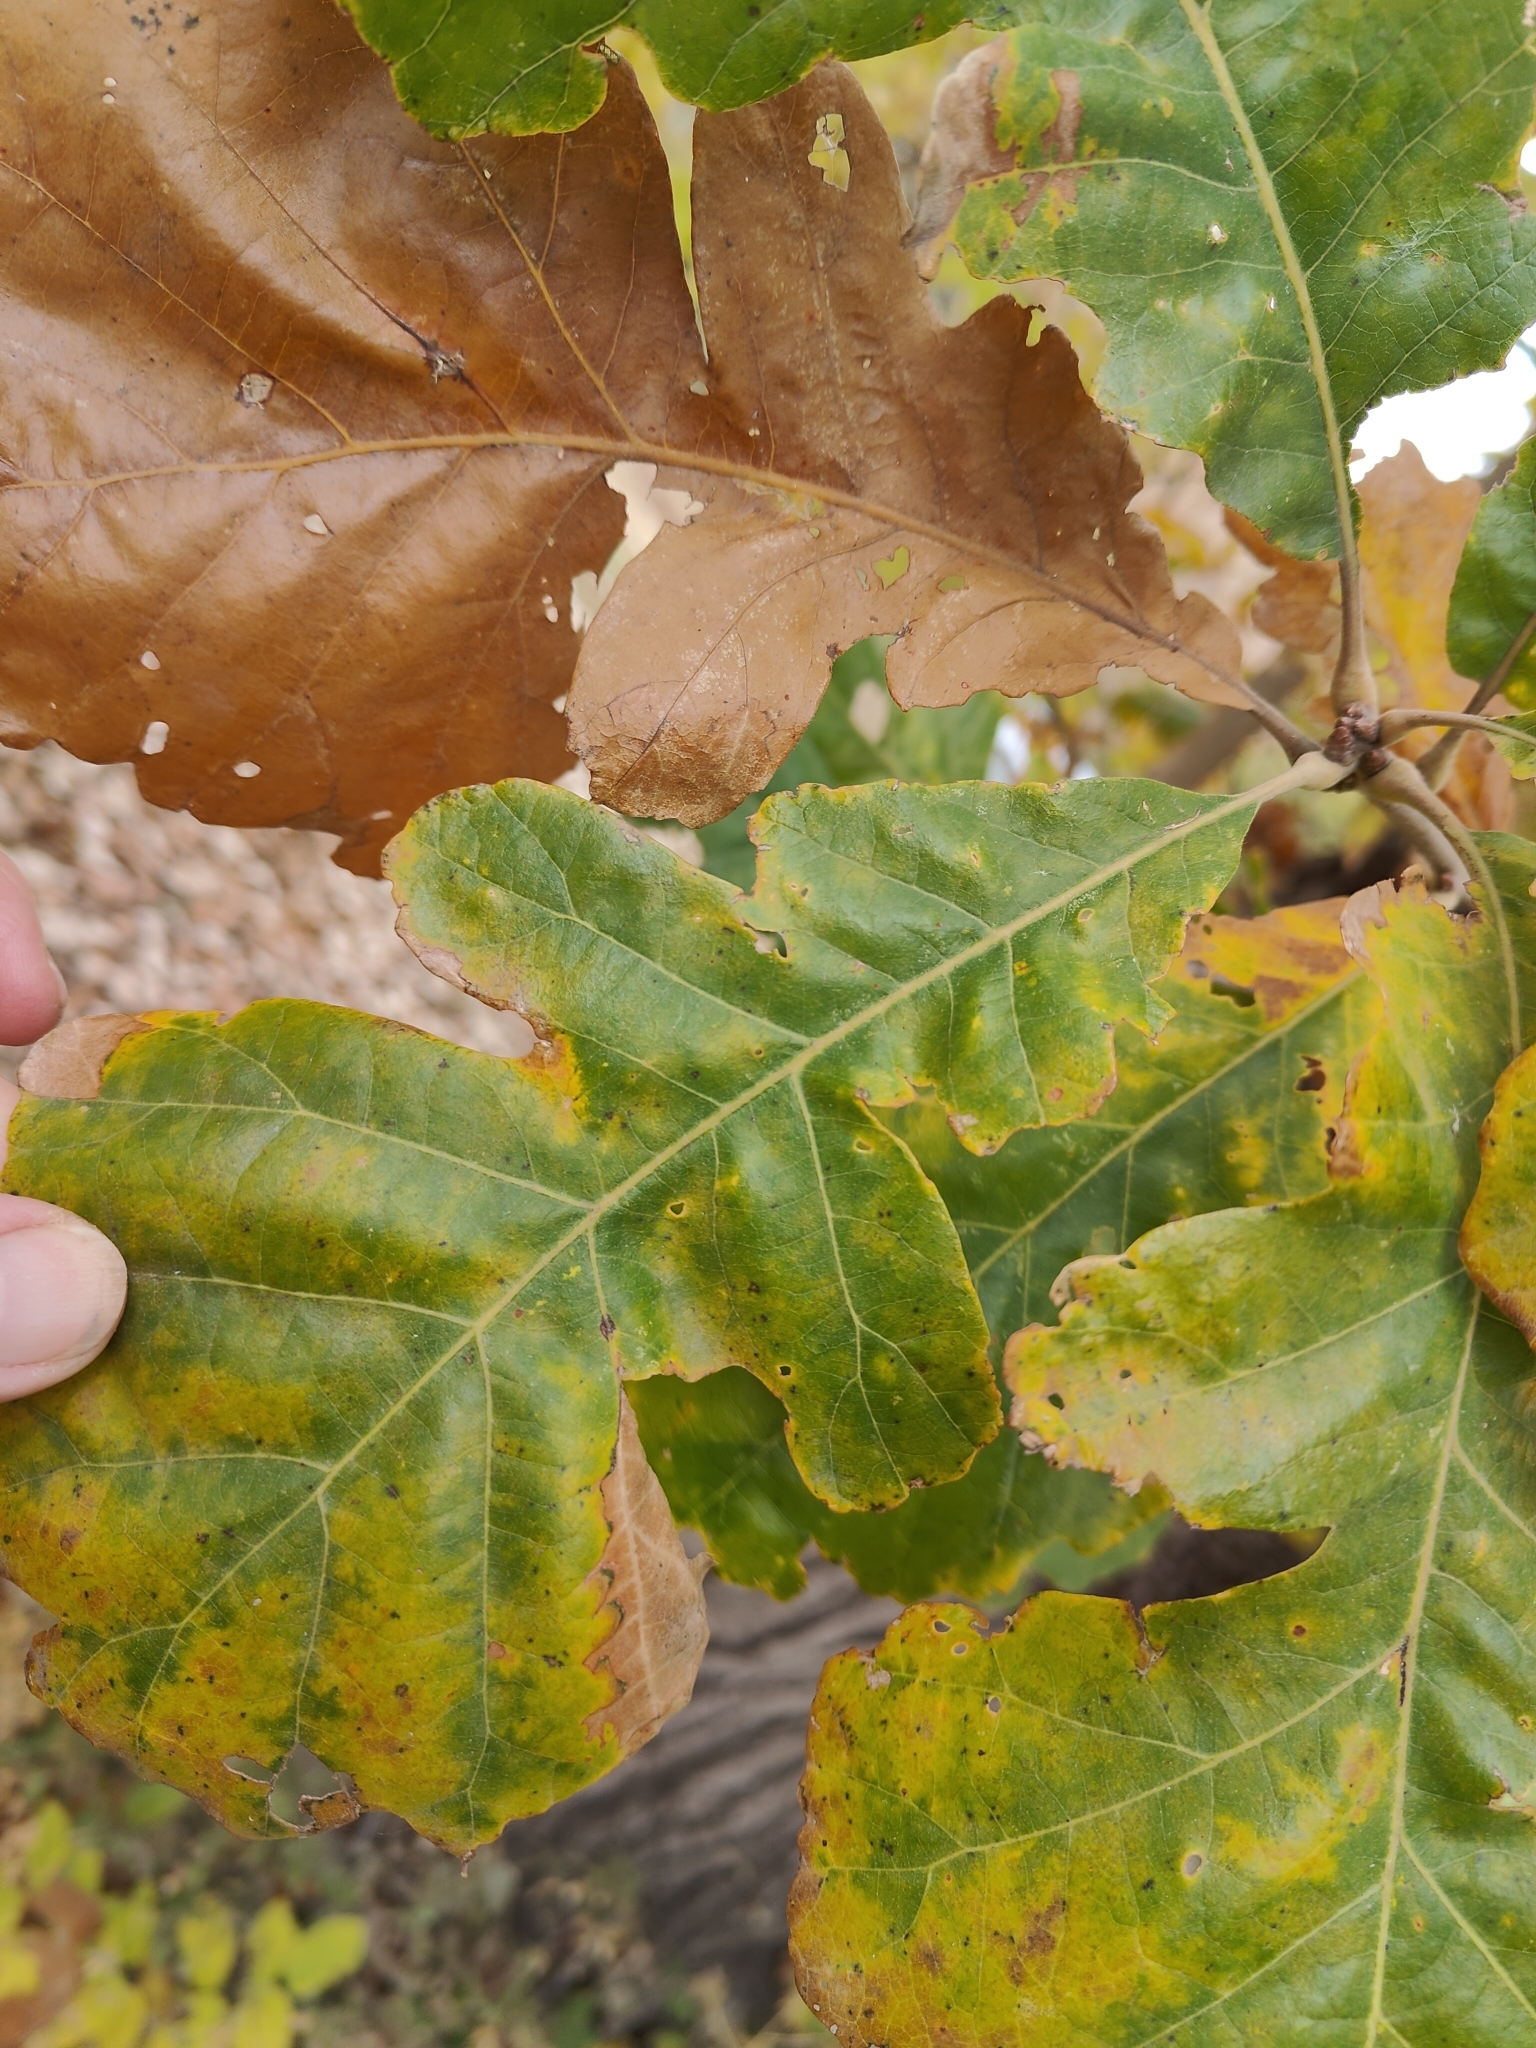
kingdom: Plantae
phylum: Tracheophyta
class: Magnoliopsida
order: Fagales
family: Fagaceae
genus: Quercus
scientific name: Quercus macrocarpa
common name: Bur oak
